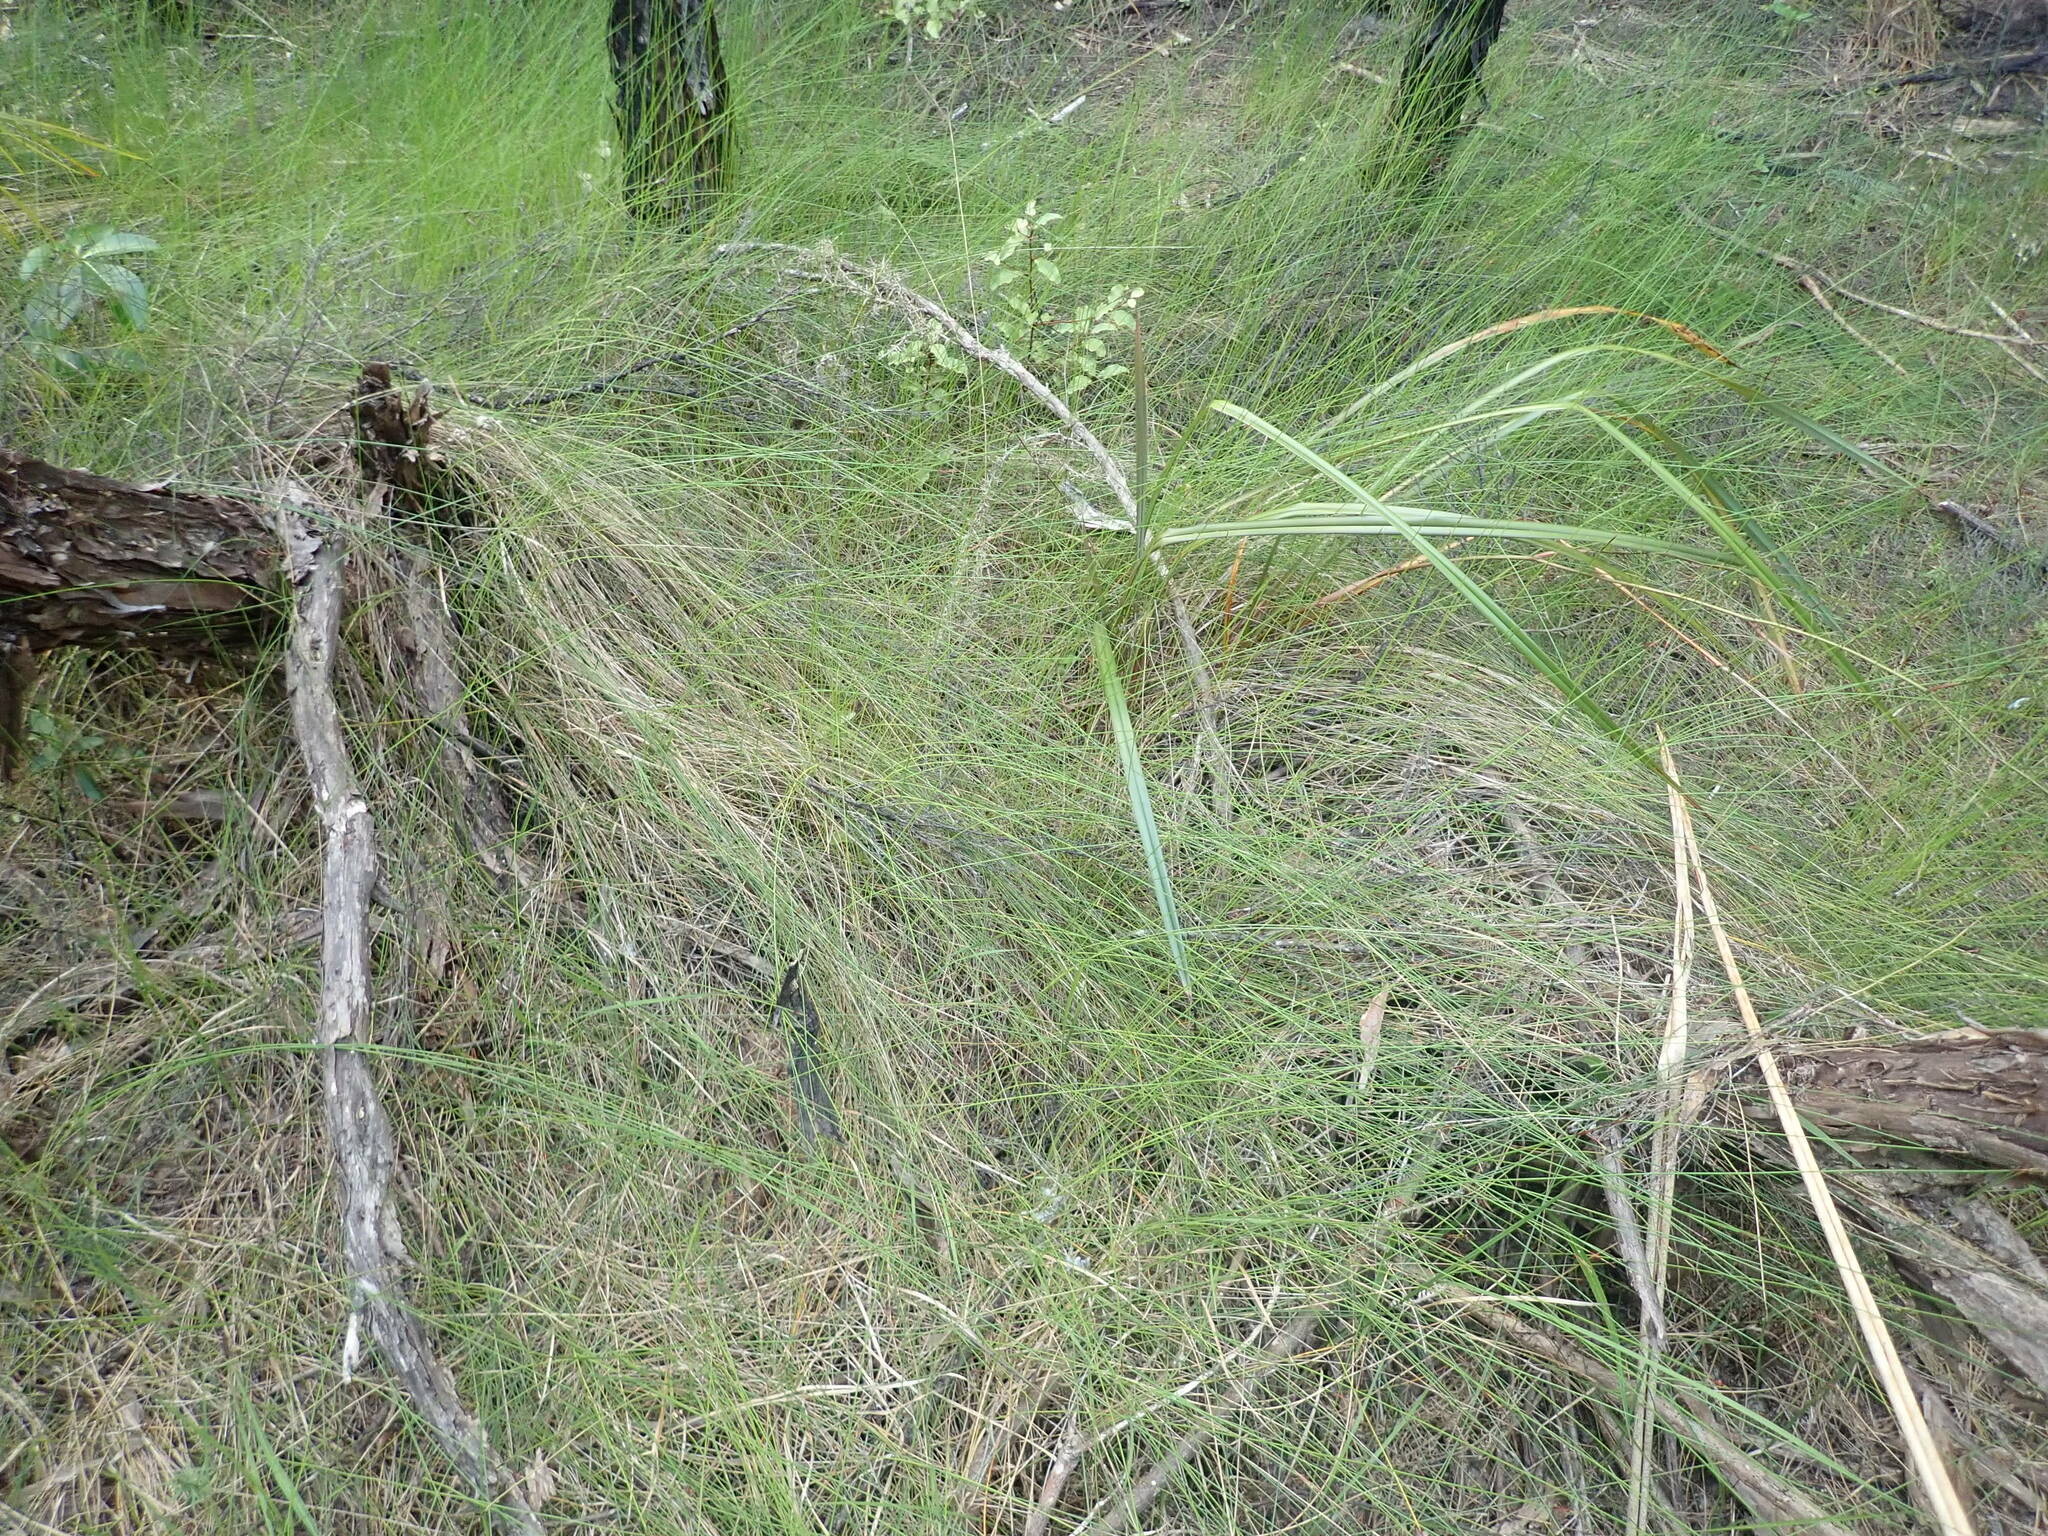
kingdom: Plantae
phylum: Tracheophyta
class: Magnoliopsida
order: Ericales
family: Primulaceae
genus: Myrsine
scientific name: Myrsine australis
